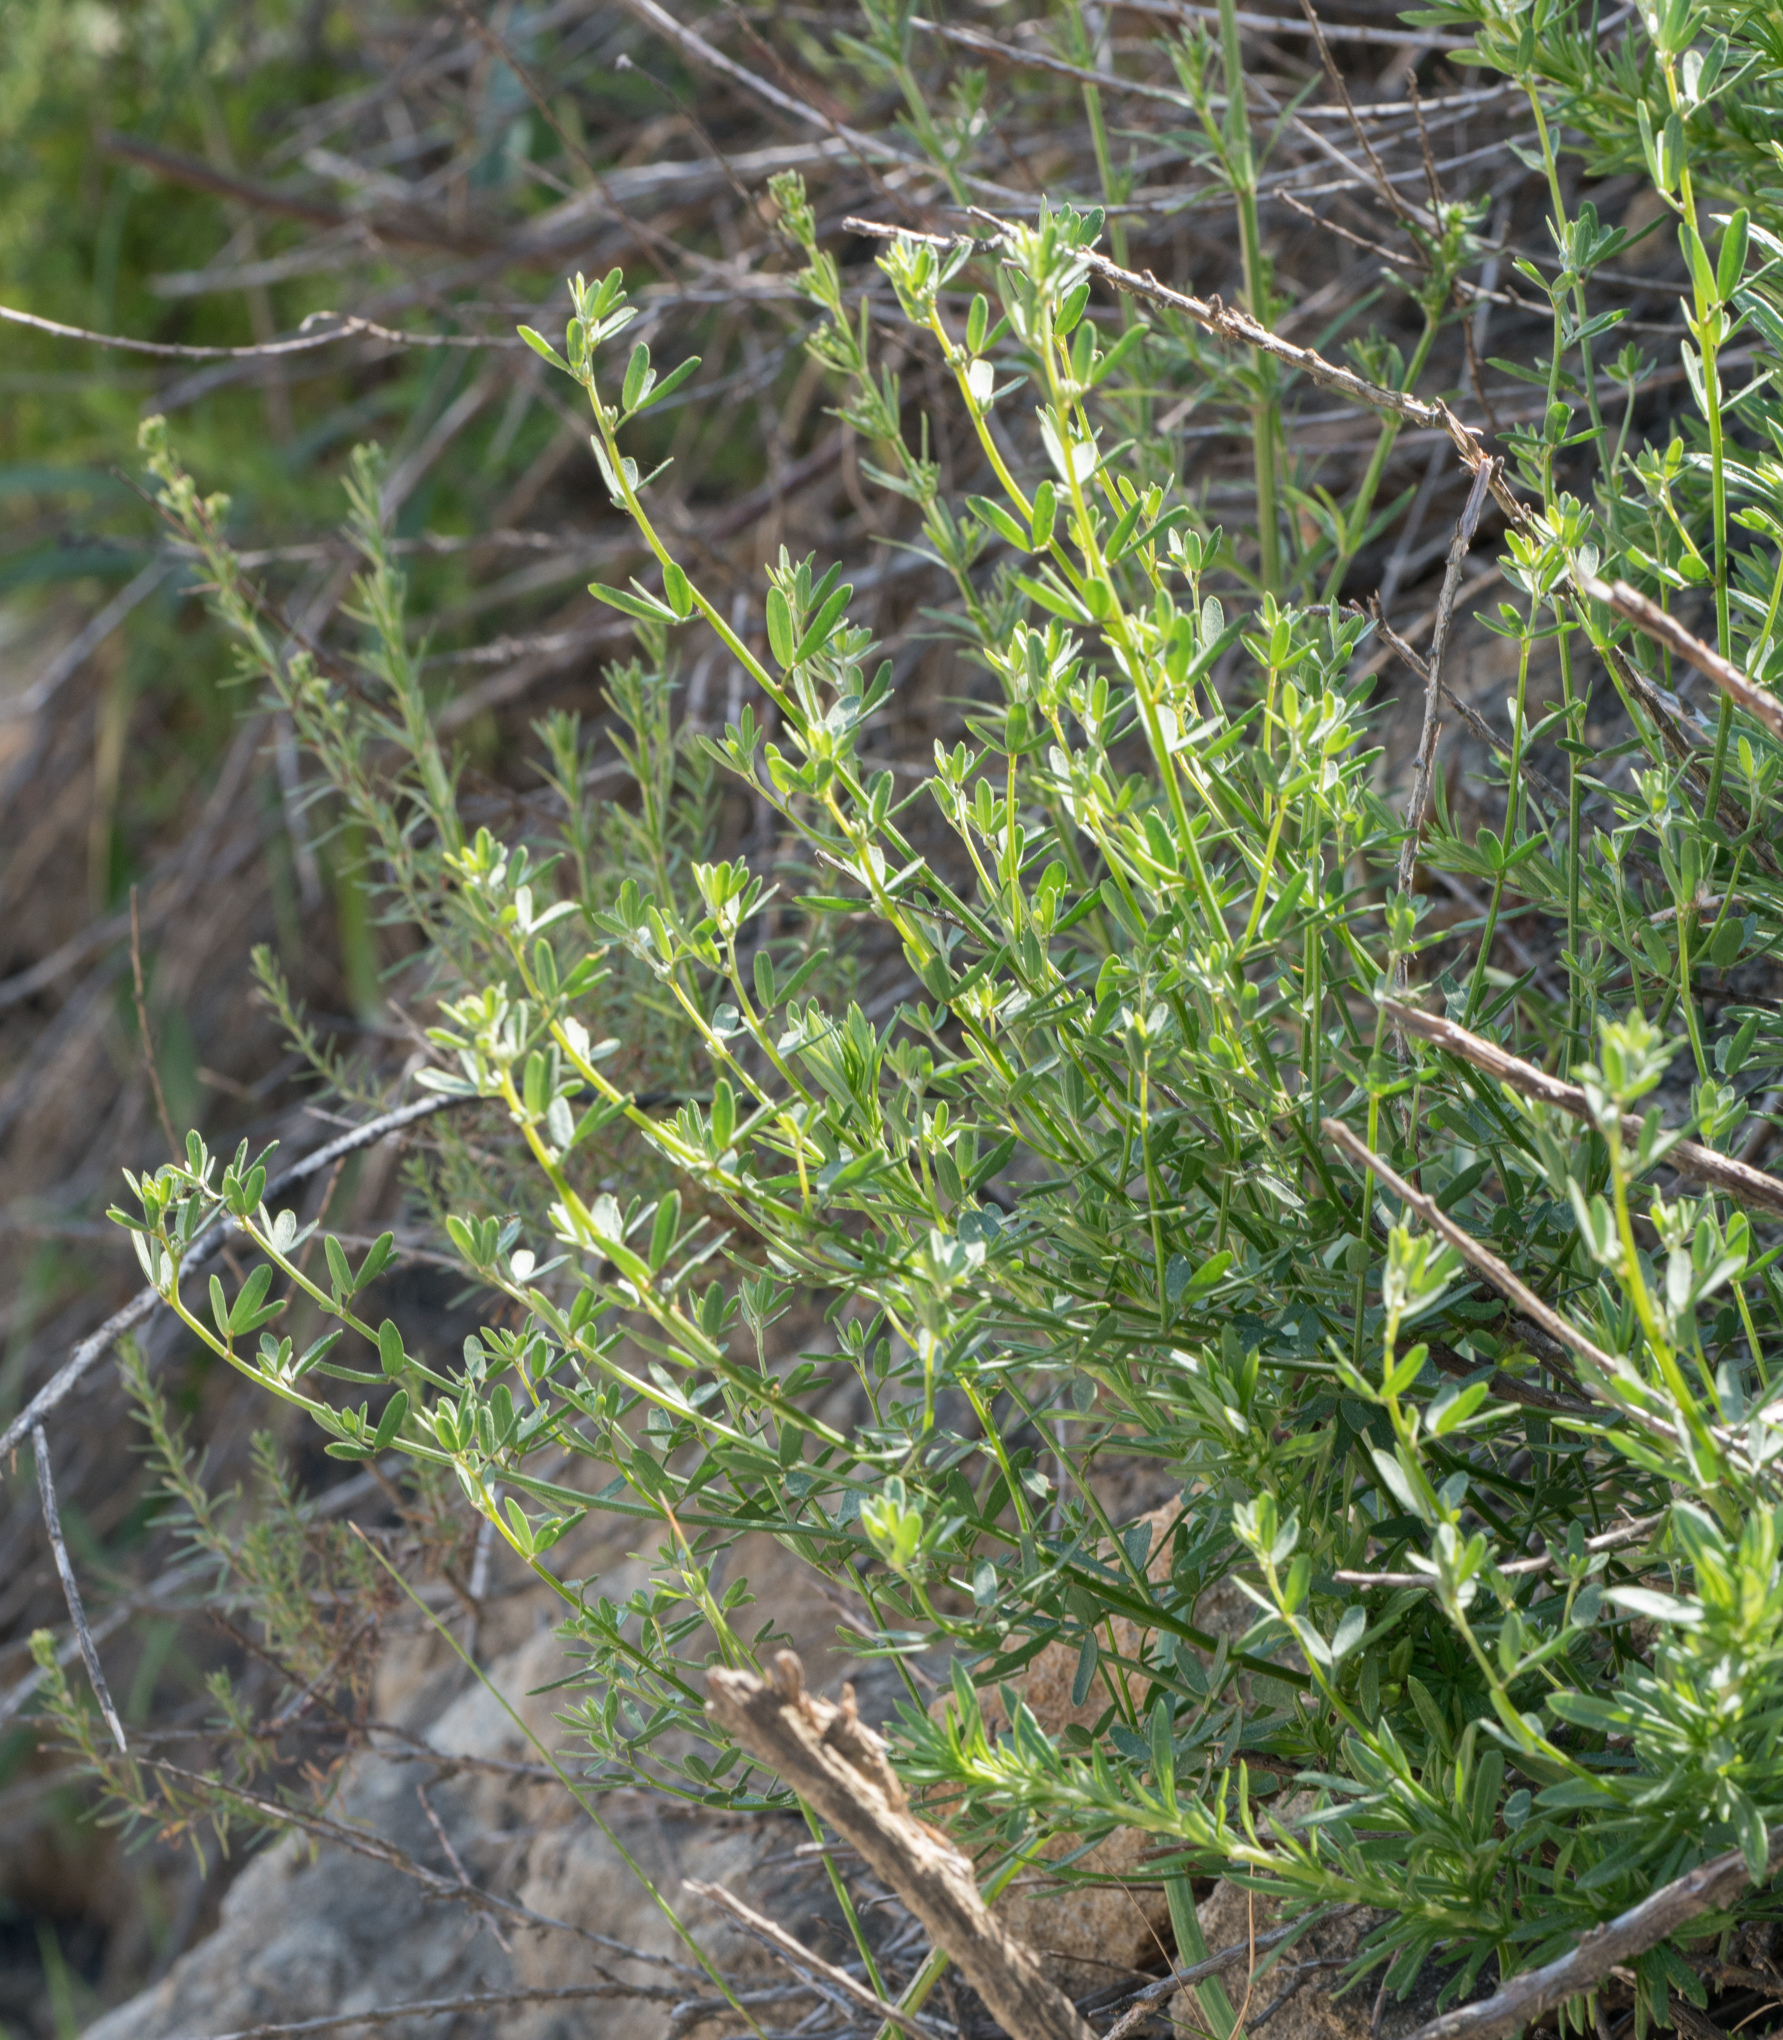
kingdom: Plantae
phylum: Tracheophyta
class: Magnoliopsida
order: Fabales
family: Fabaceae
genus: Acmispon
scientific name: Acmispon glaber
